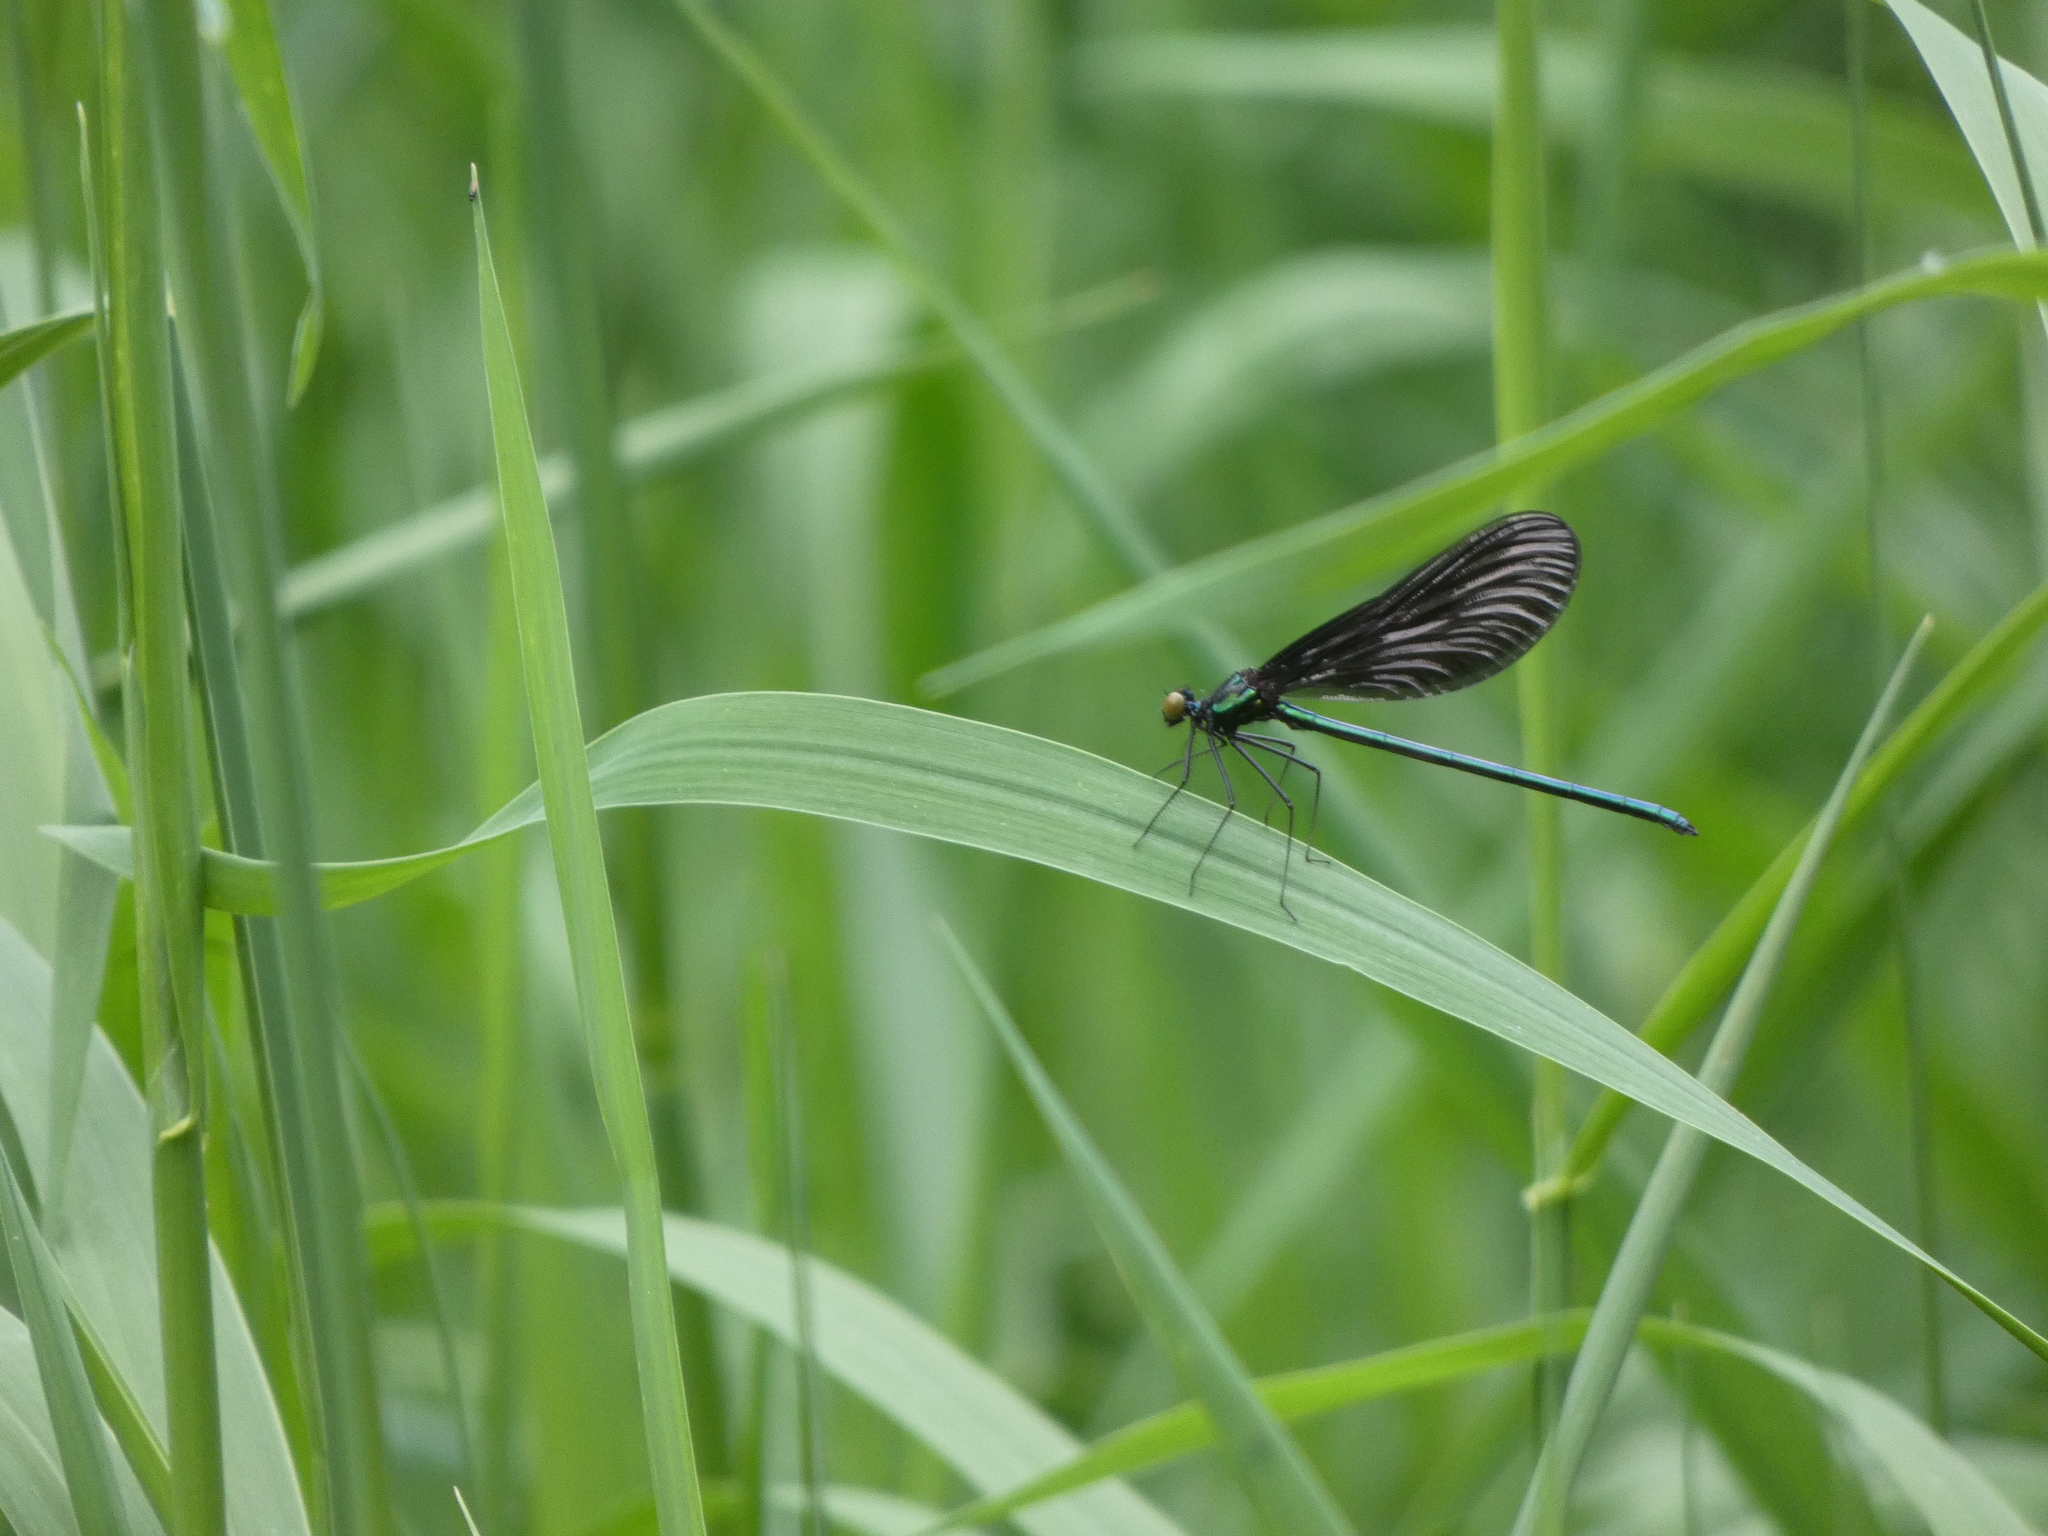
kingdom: Animalia
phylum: Arthropoda
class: Insecta
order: Odonata
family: Calopterygidae
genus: Calopteryx
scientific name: Calopteryx maculata
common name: Ebony jewelwing
